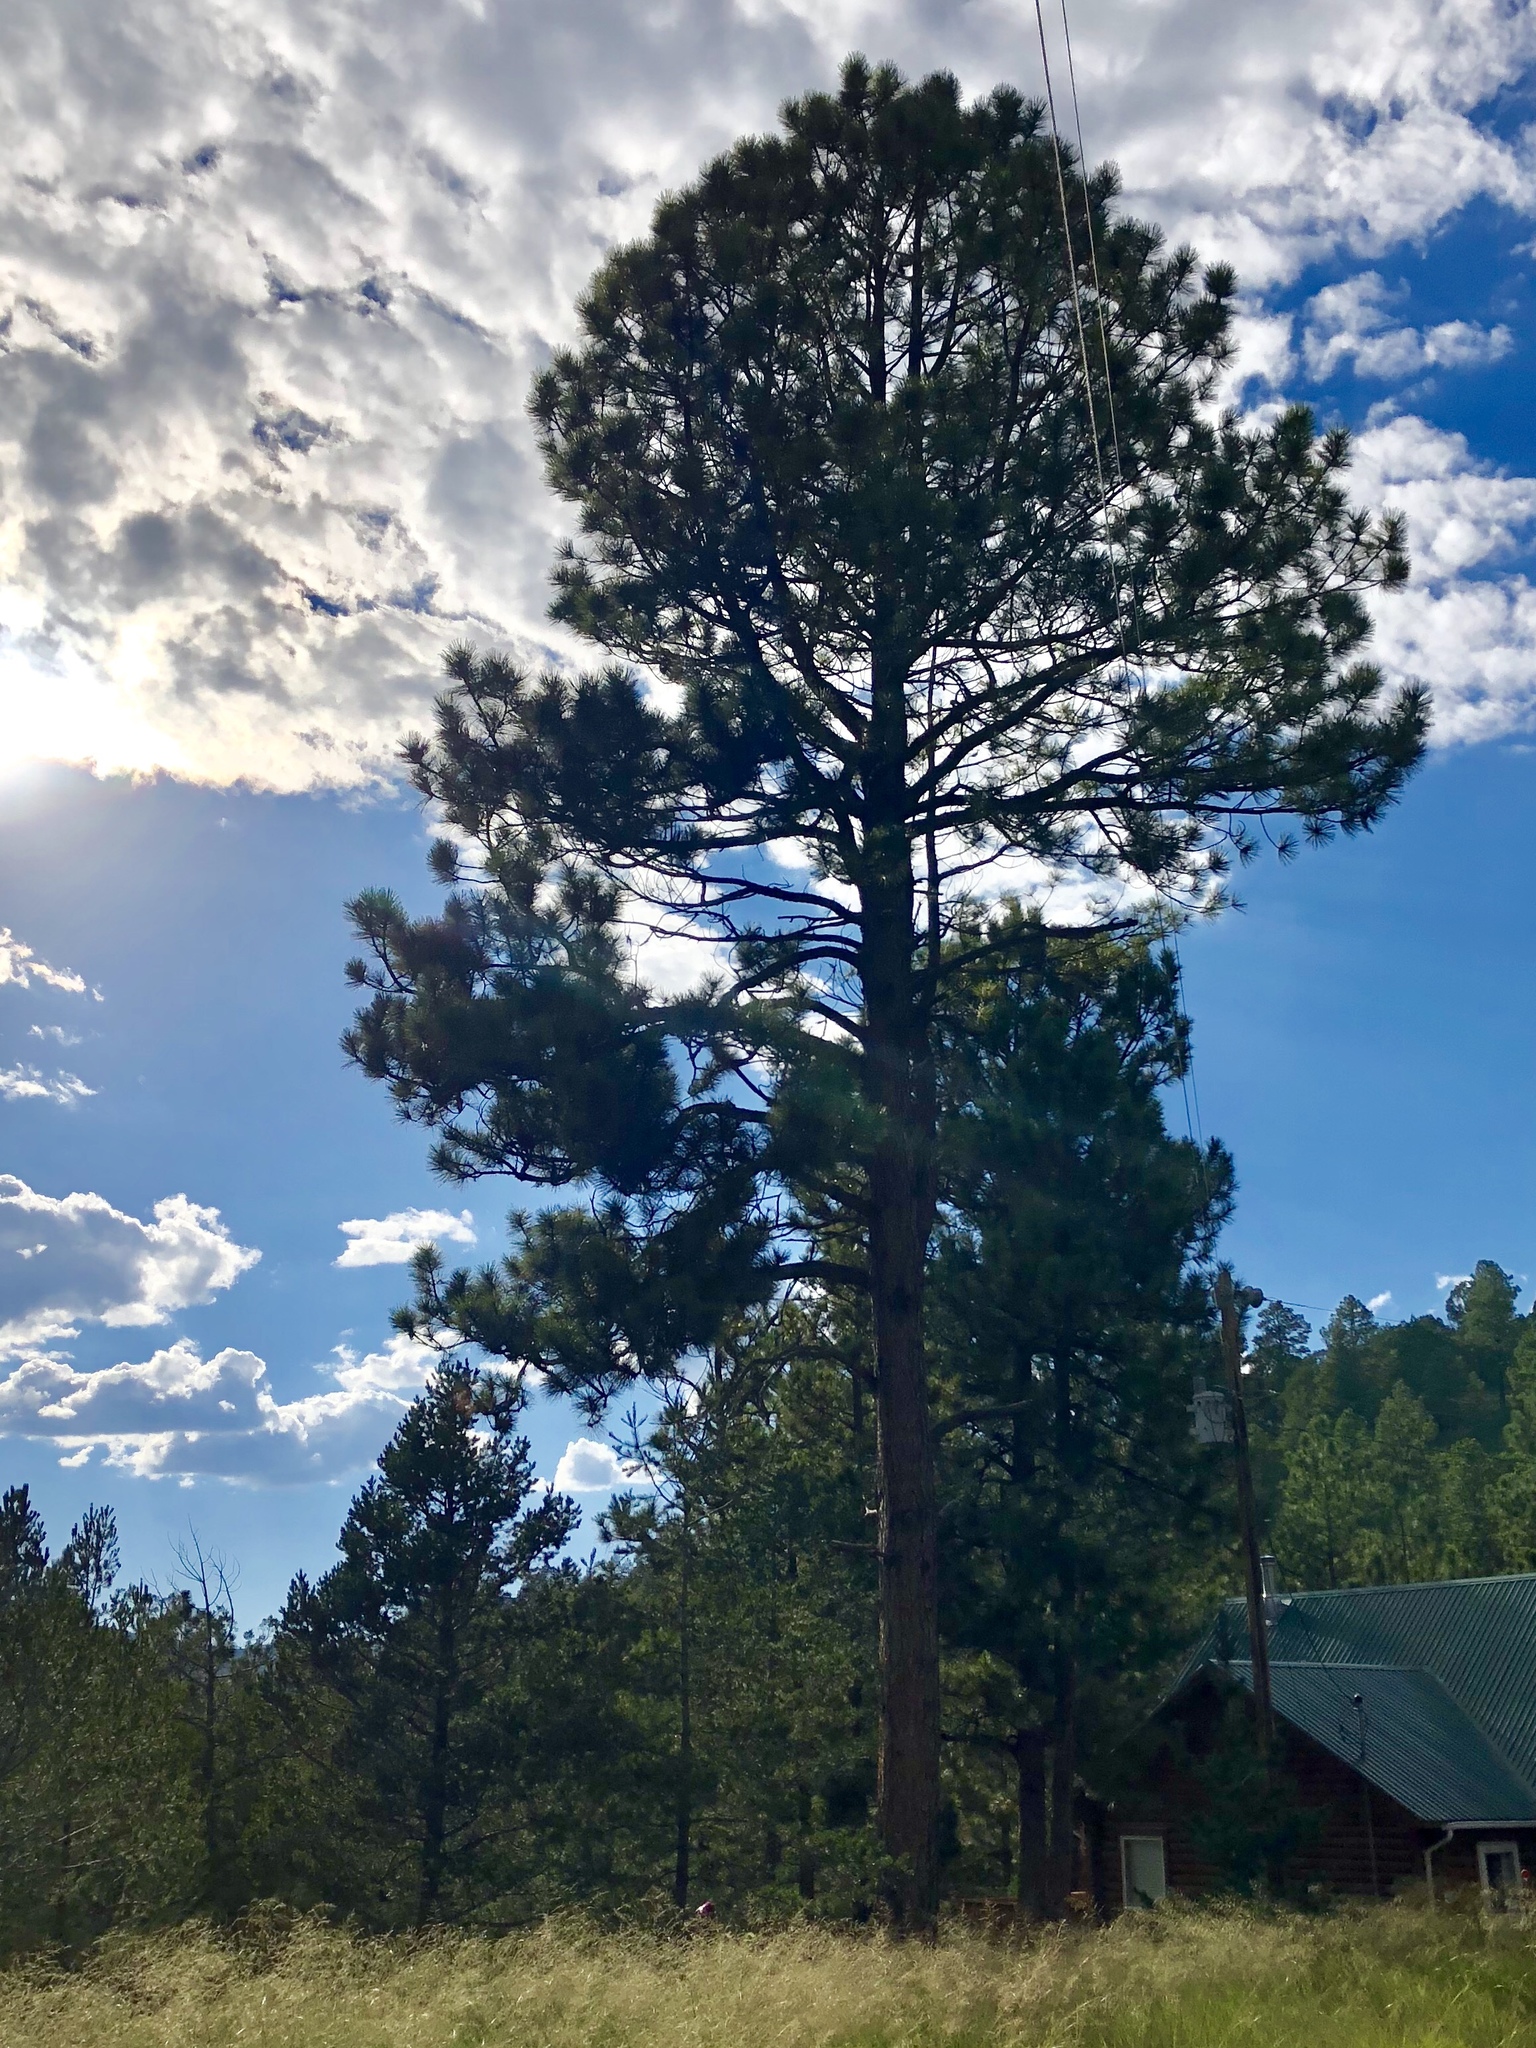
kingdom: Plantae
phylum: Tracheophyta
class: Pinopsida
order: Pinales
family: Pinaceae
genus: Pinus
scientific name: Pinus ponderosa
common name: Western yellow-pine
